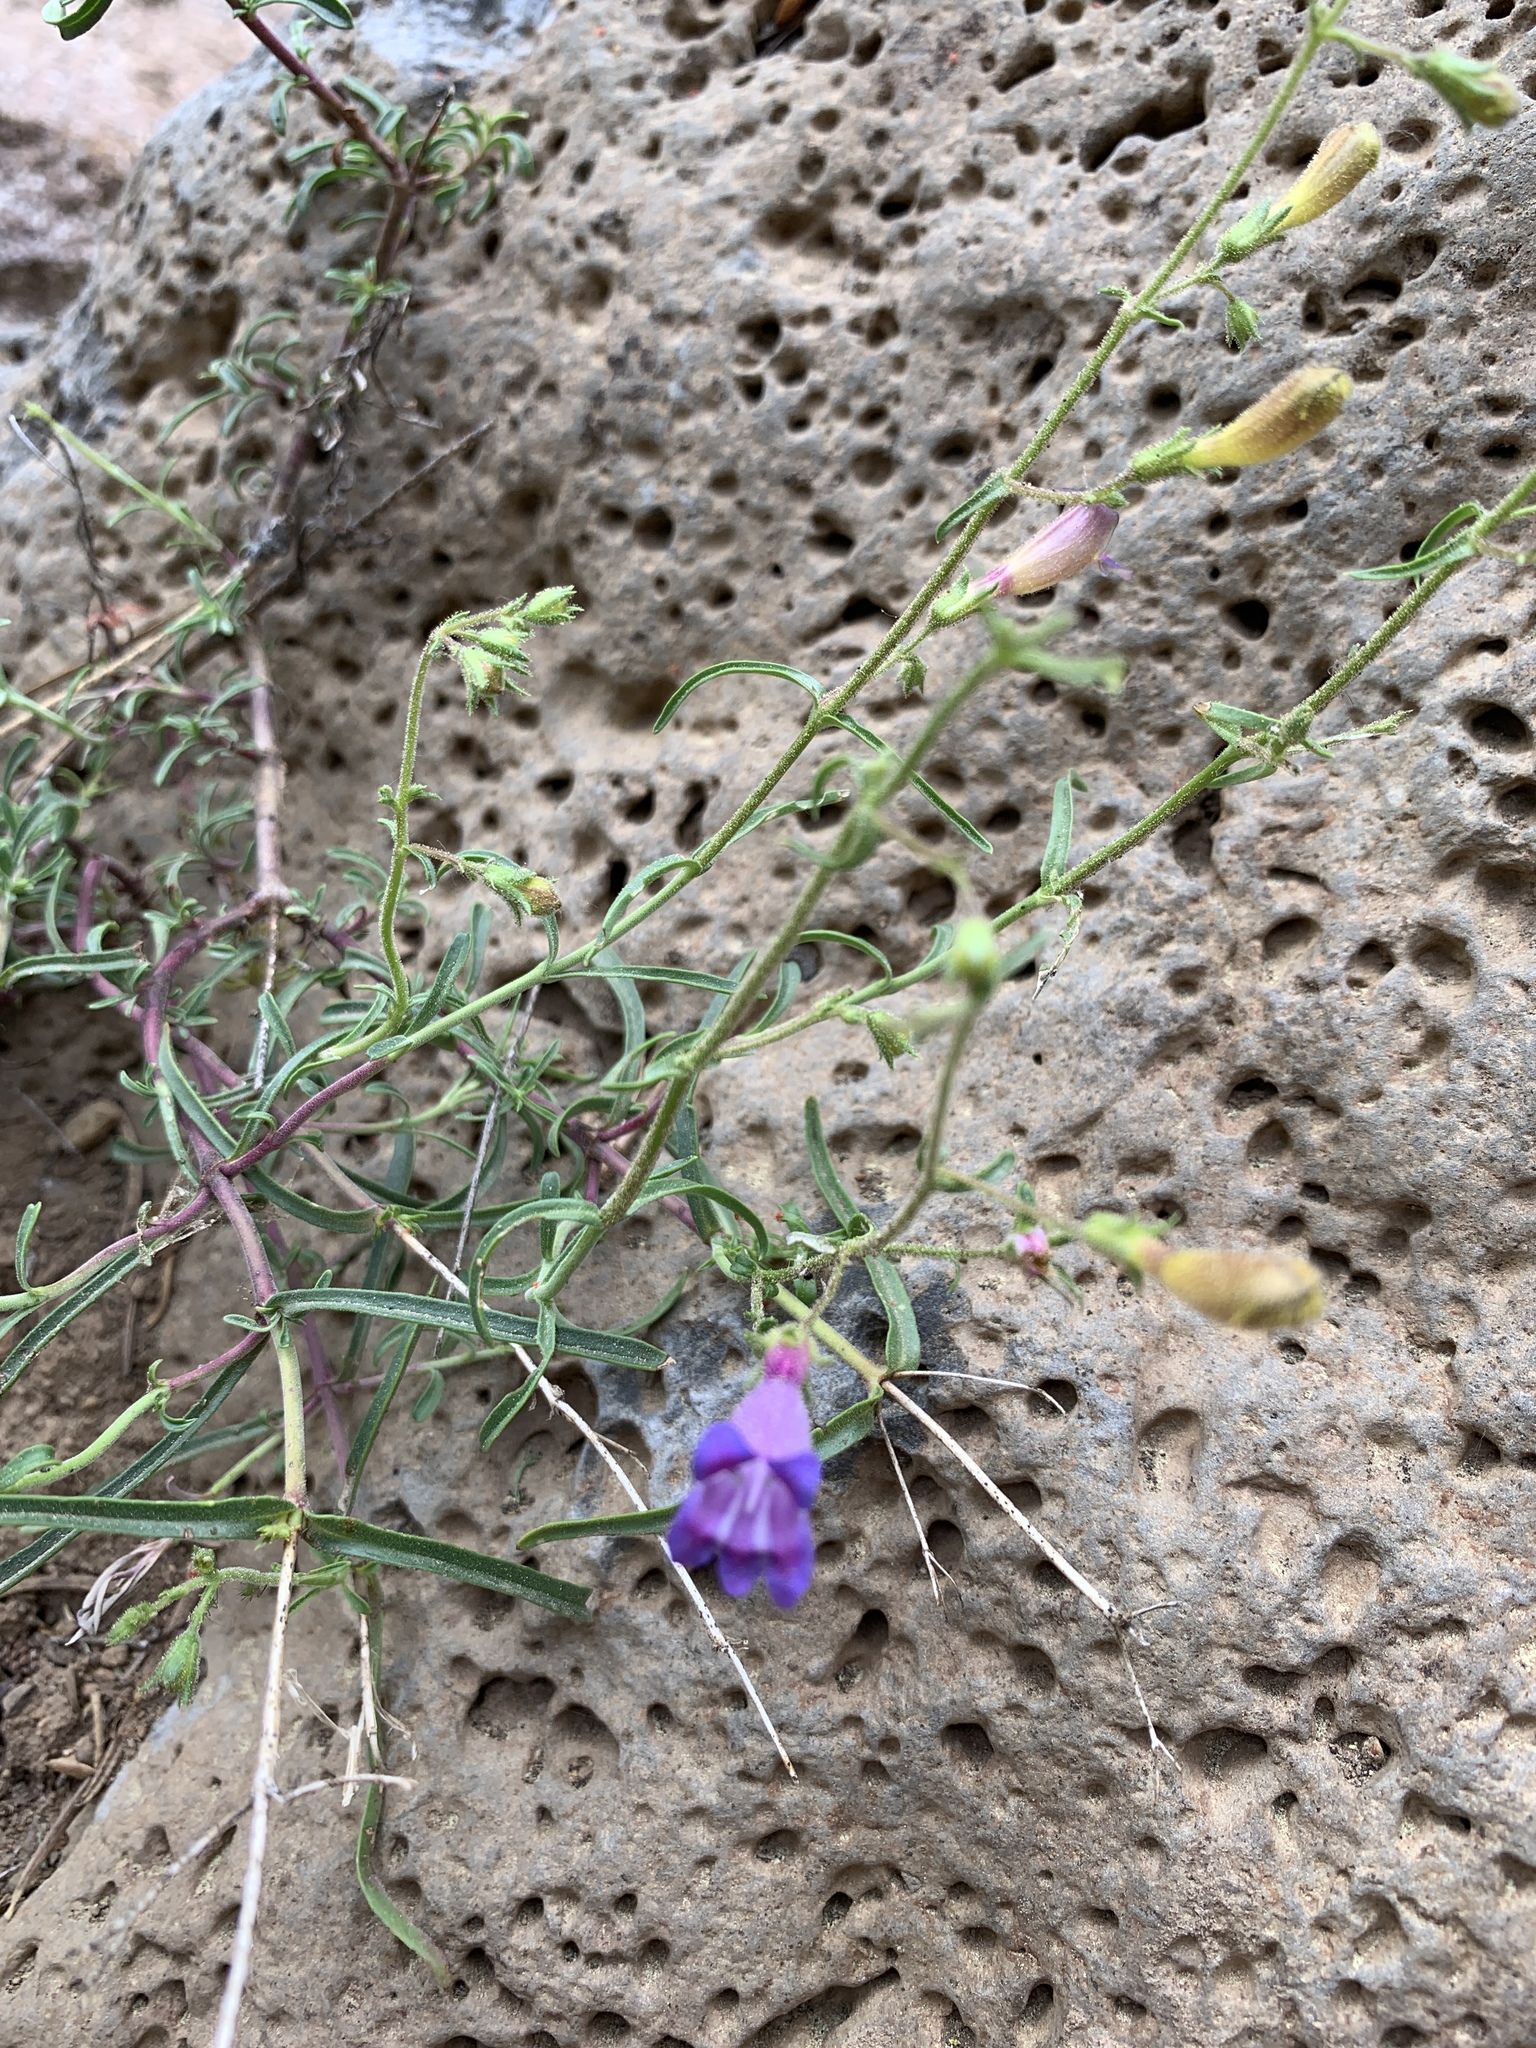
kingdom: Plantae
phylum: Tracheophyta
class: Magnoliopsida
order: Lamiales
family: Plantaginaceae
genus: Penstemon
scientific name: Penstemon roezlii
